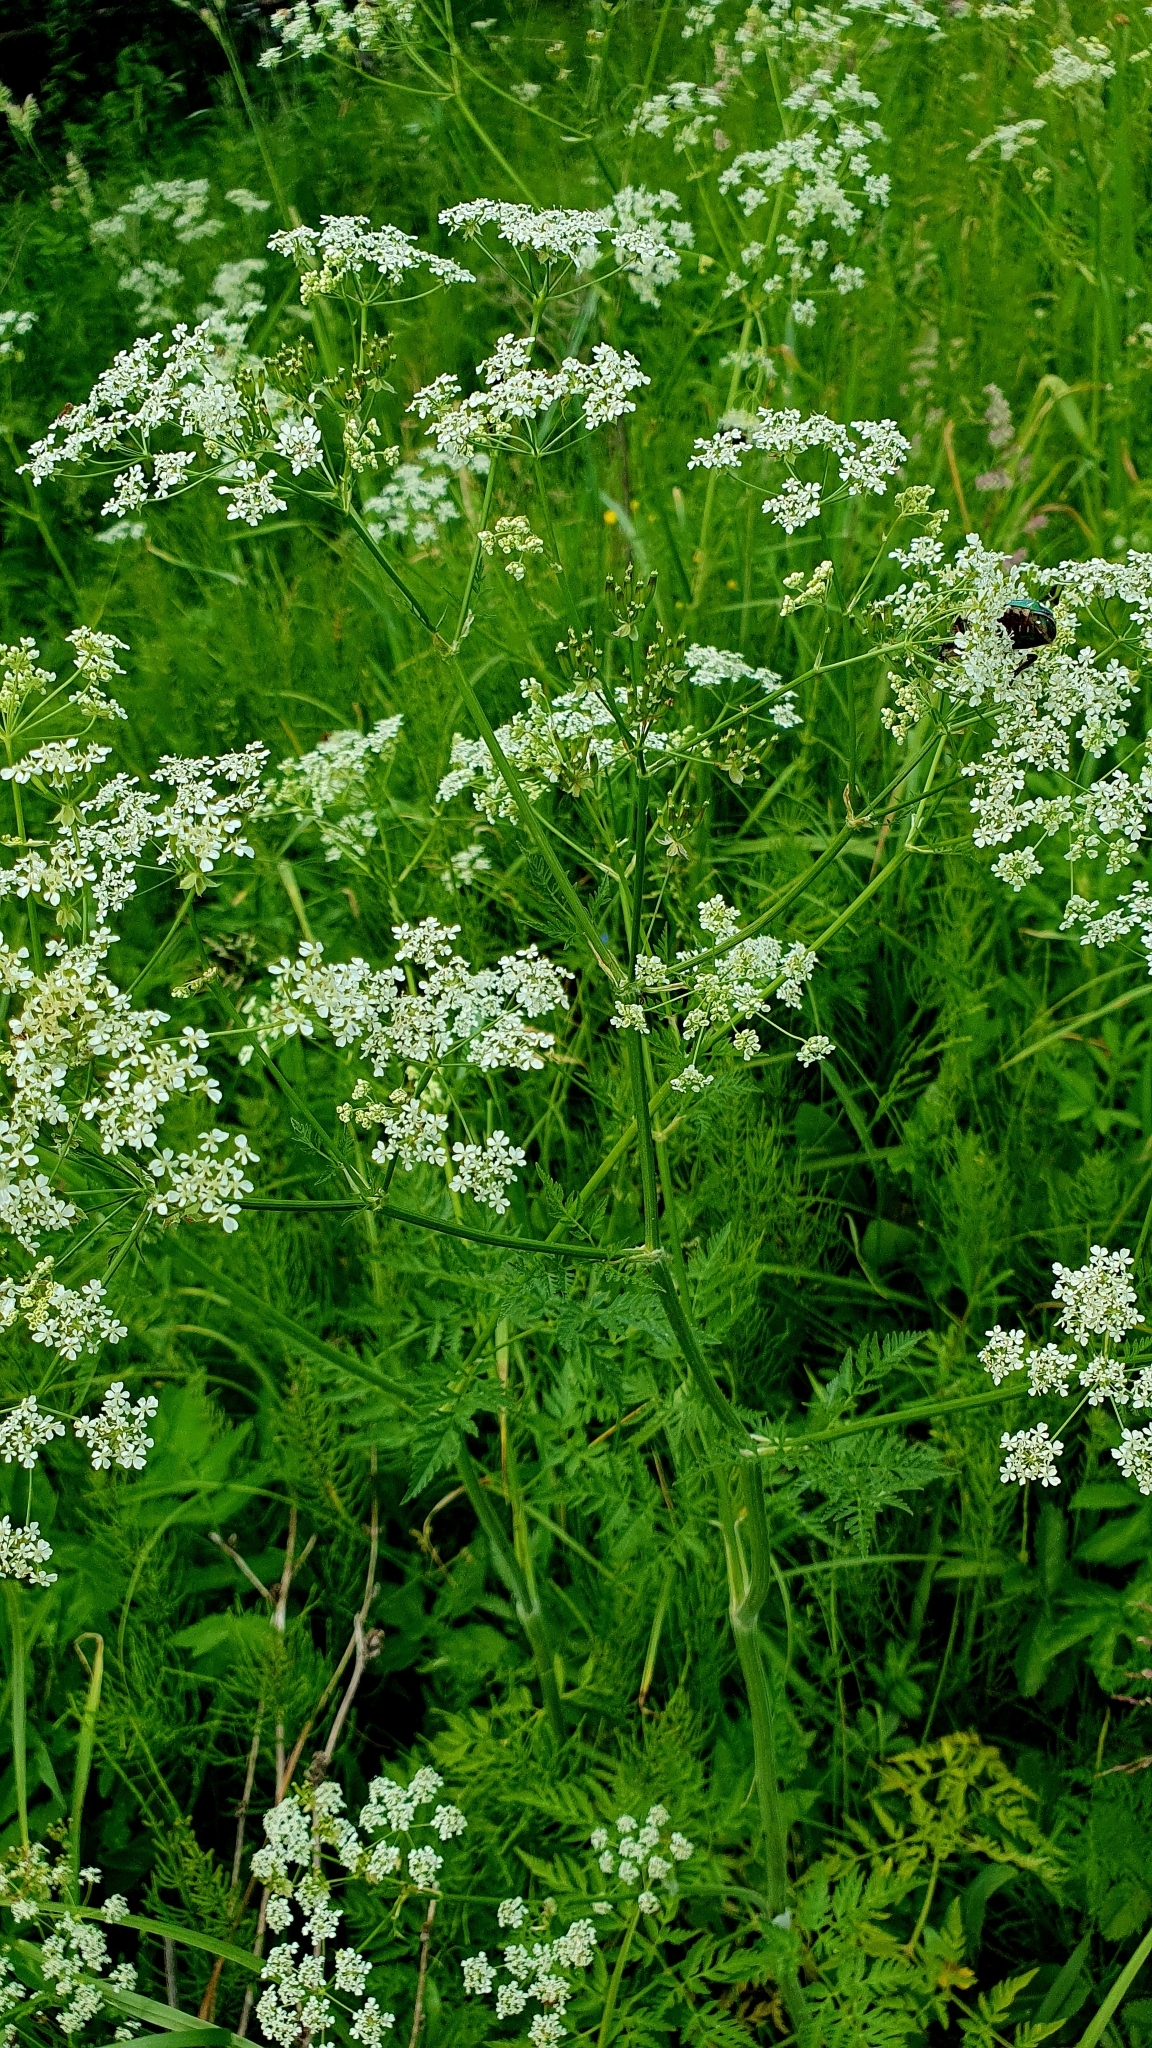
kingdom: Plantae
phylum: Tracheophyta
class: Magnoliopsida
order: Apiales
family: Apiaceae
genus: Anthriscus
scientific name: Anthriscus sylvestris
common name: Cow parsley
